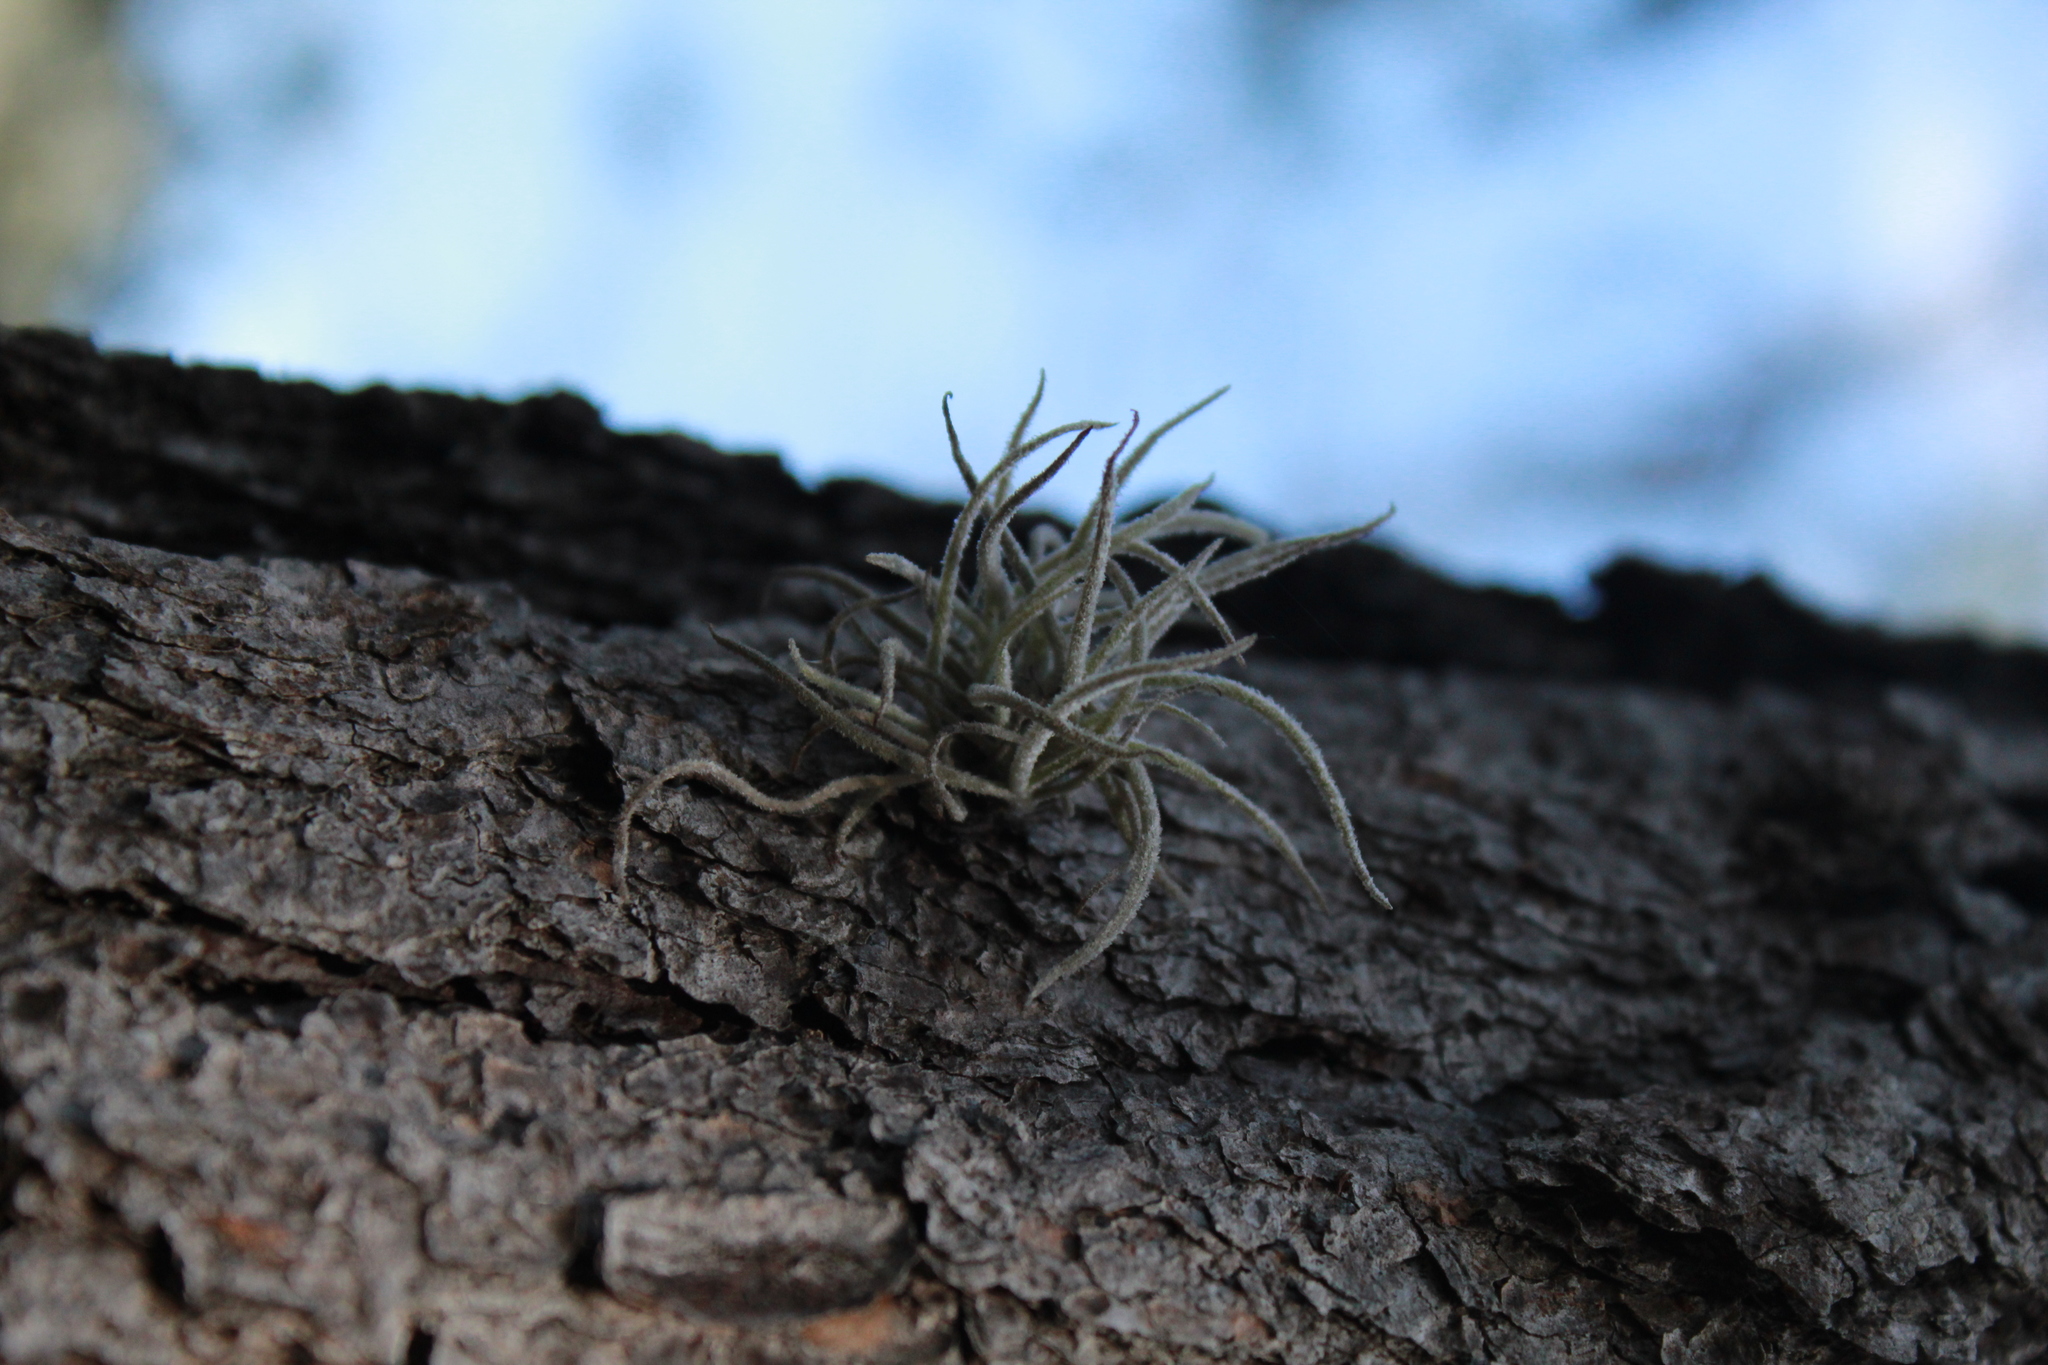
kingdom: Plantae
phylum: Tracheophyta
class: Liliopsida
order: Poales
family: Bromeliaceae
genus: Tillandsia
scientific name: Tillandsia recurvata
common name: Small ballmoss
